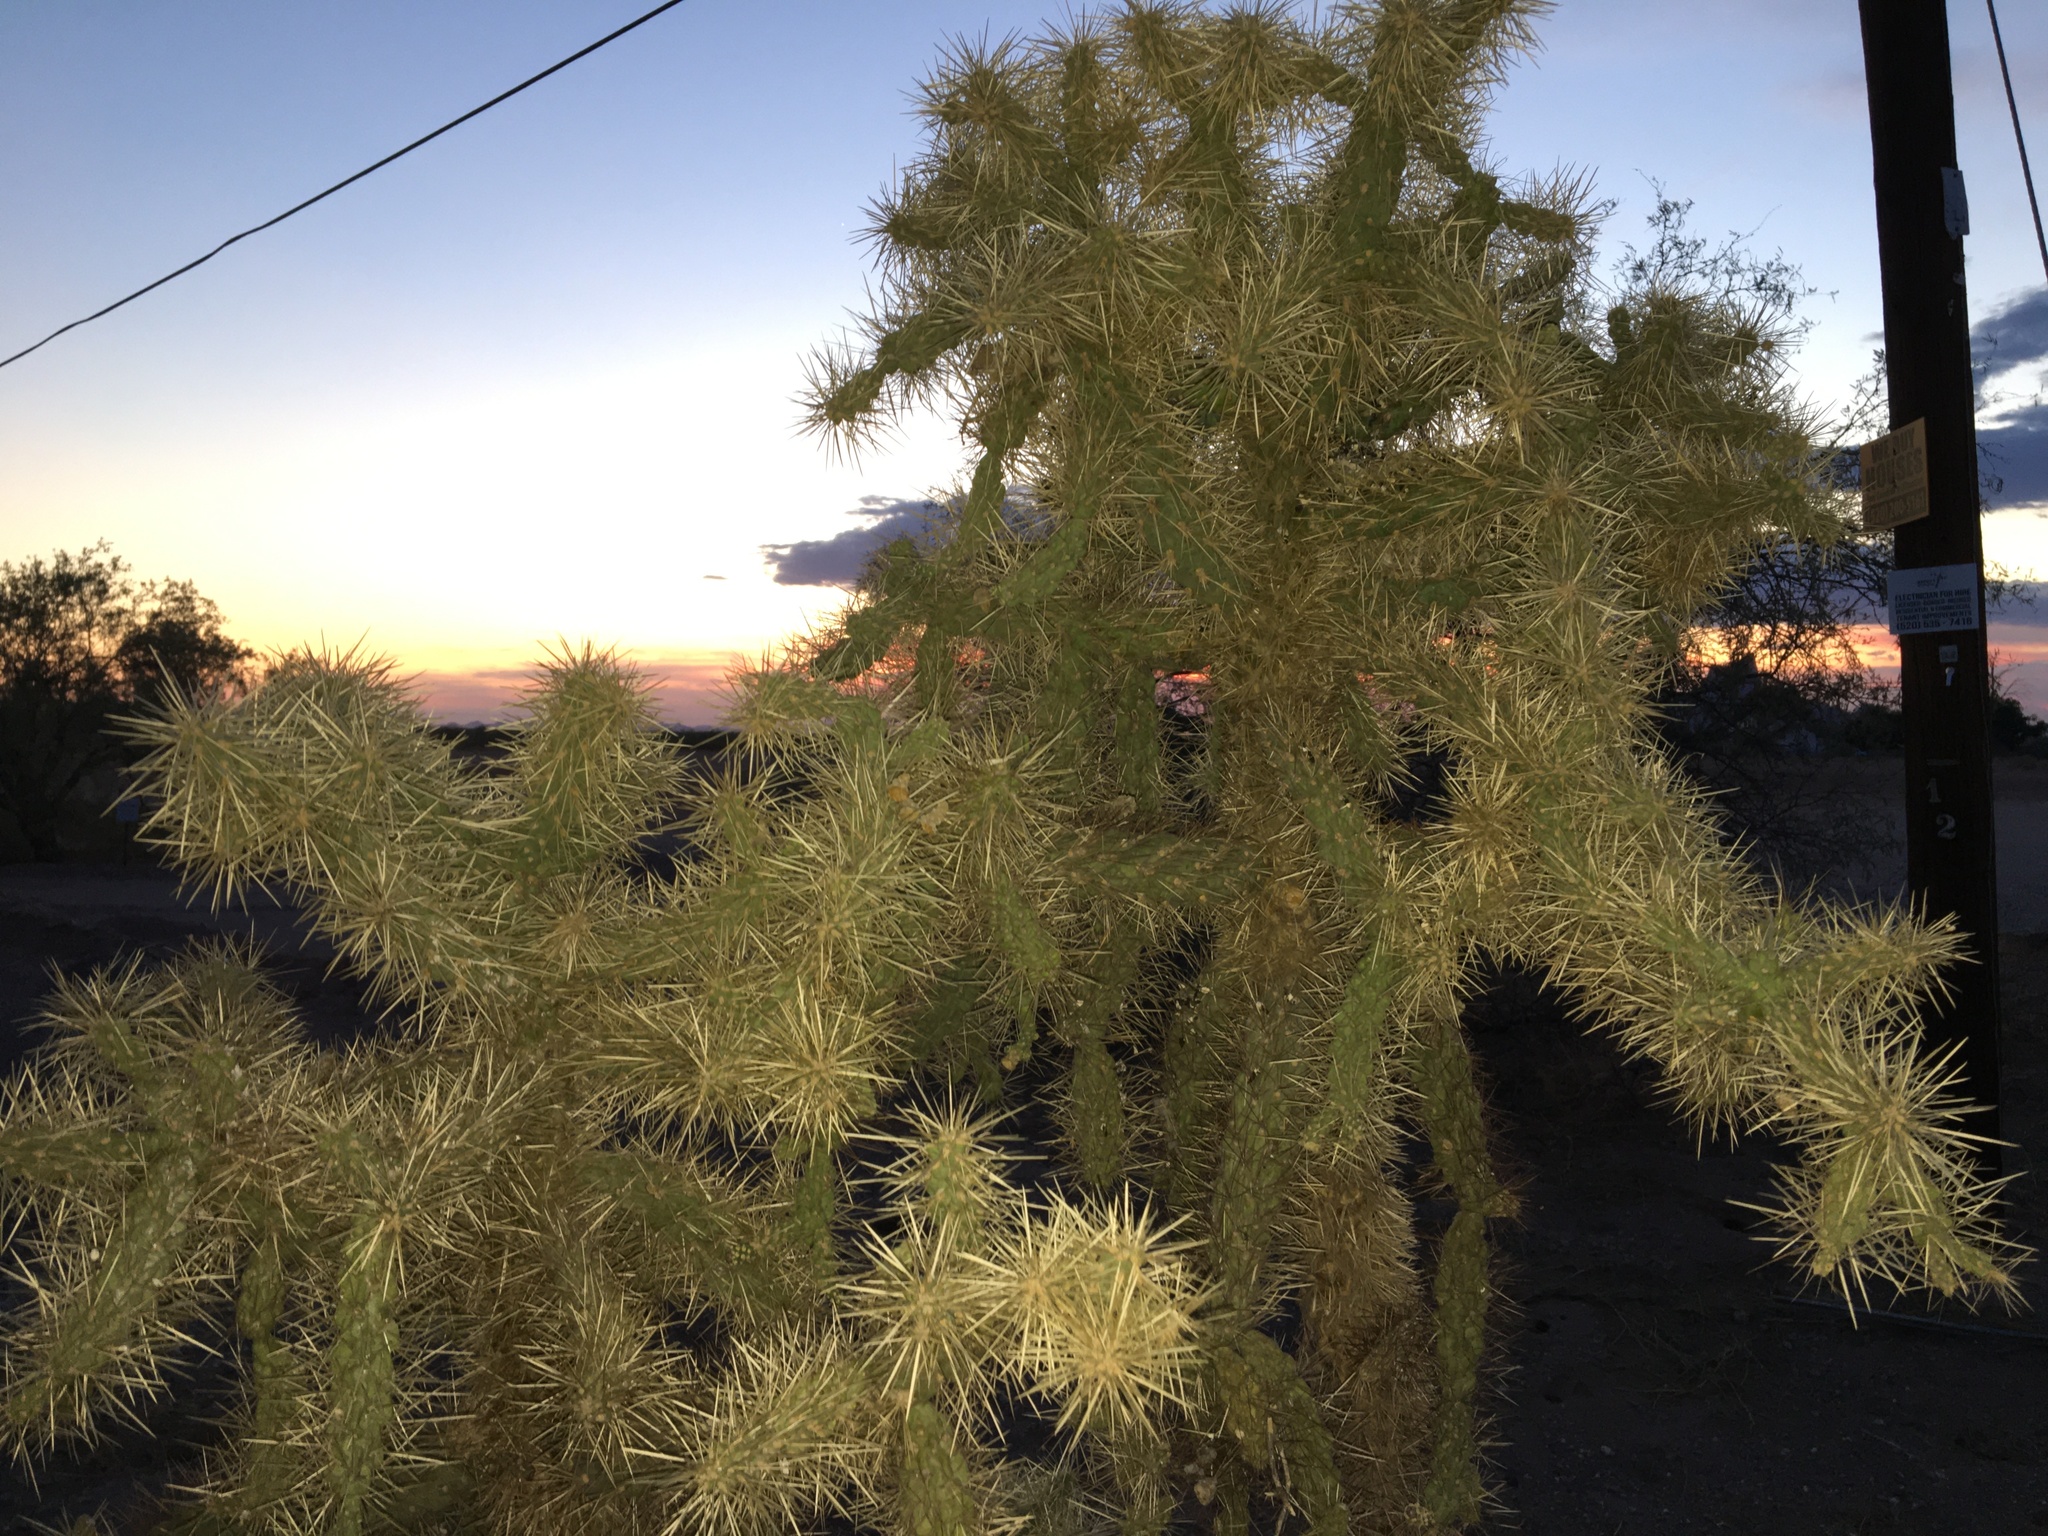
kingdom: Plantae
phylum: Tracheophyta
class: Magnoliopsida
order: Caryophyllales
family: Cactaceae
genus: Cylindropuntia
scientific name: Cylindropuntia fulgida
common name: Jumping cholla
